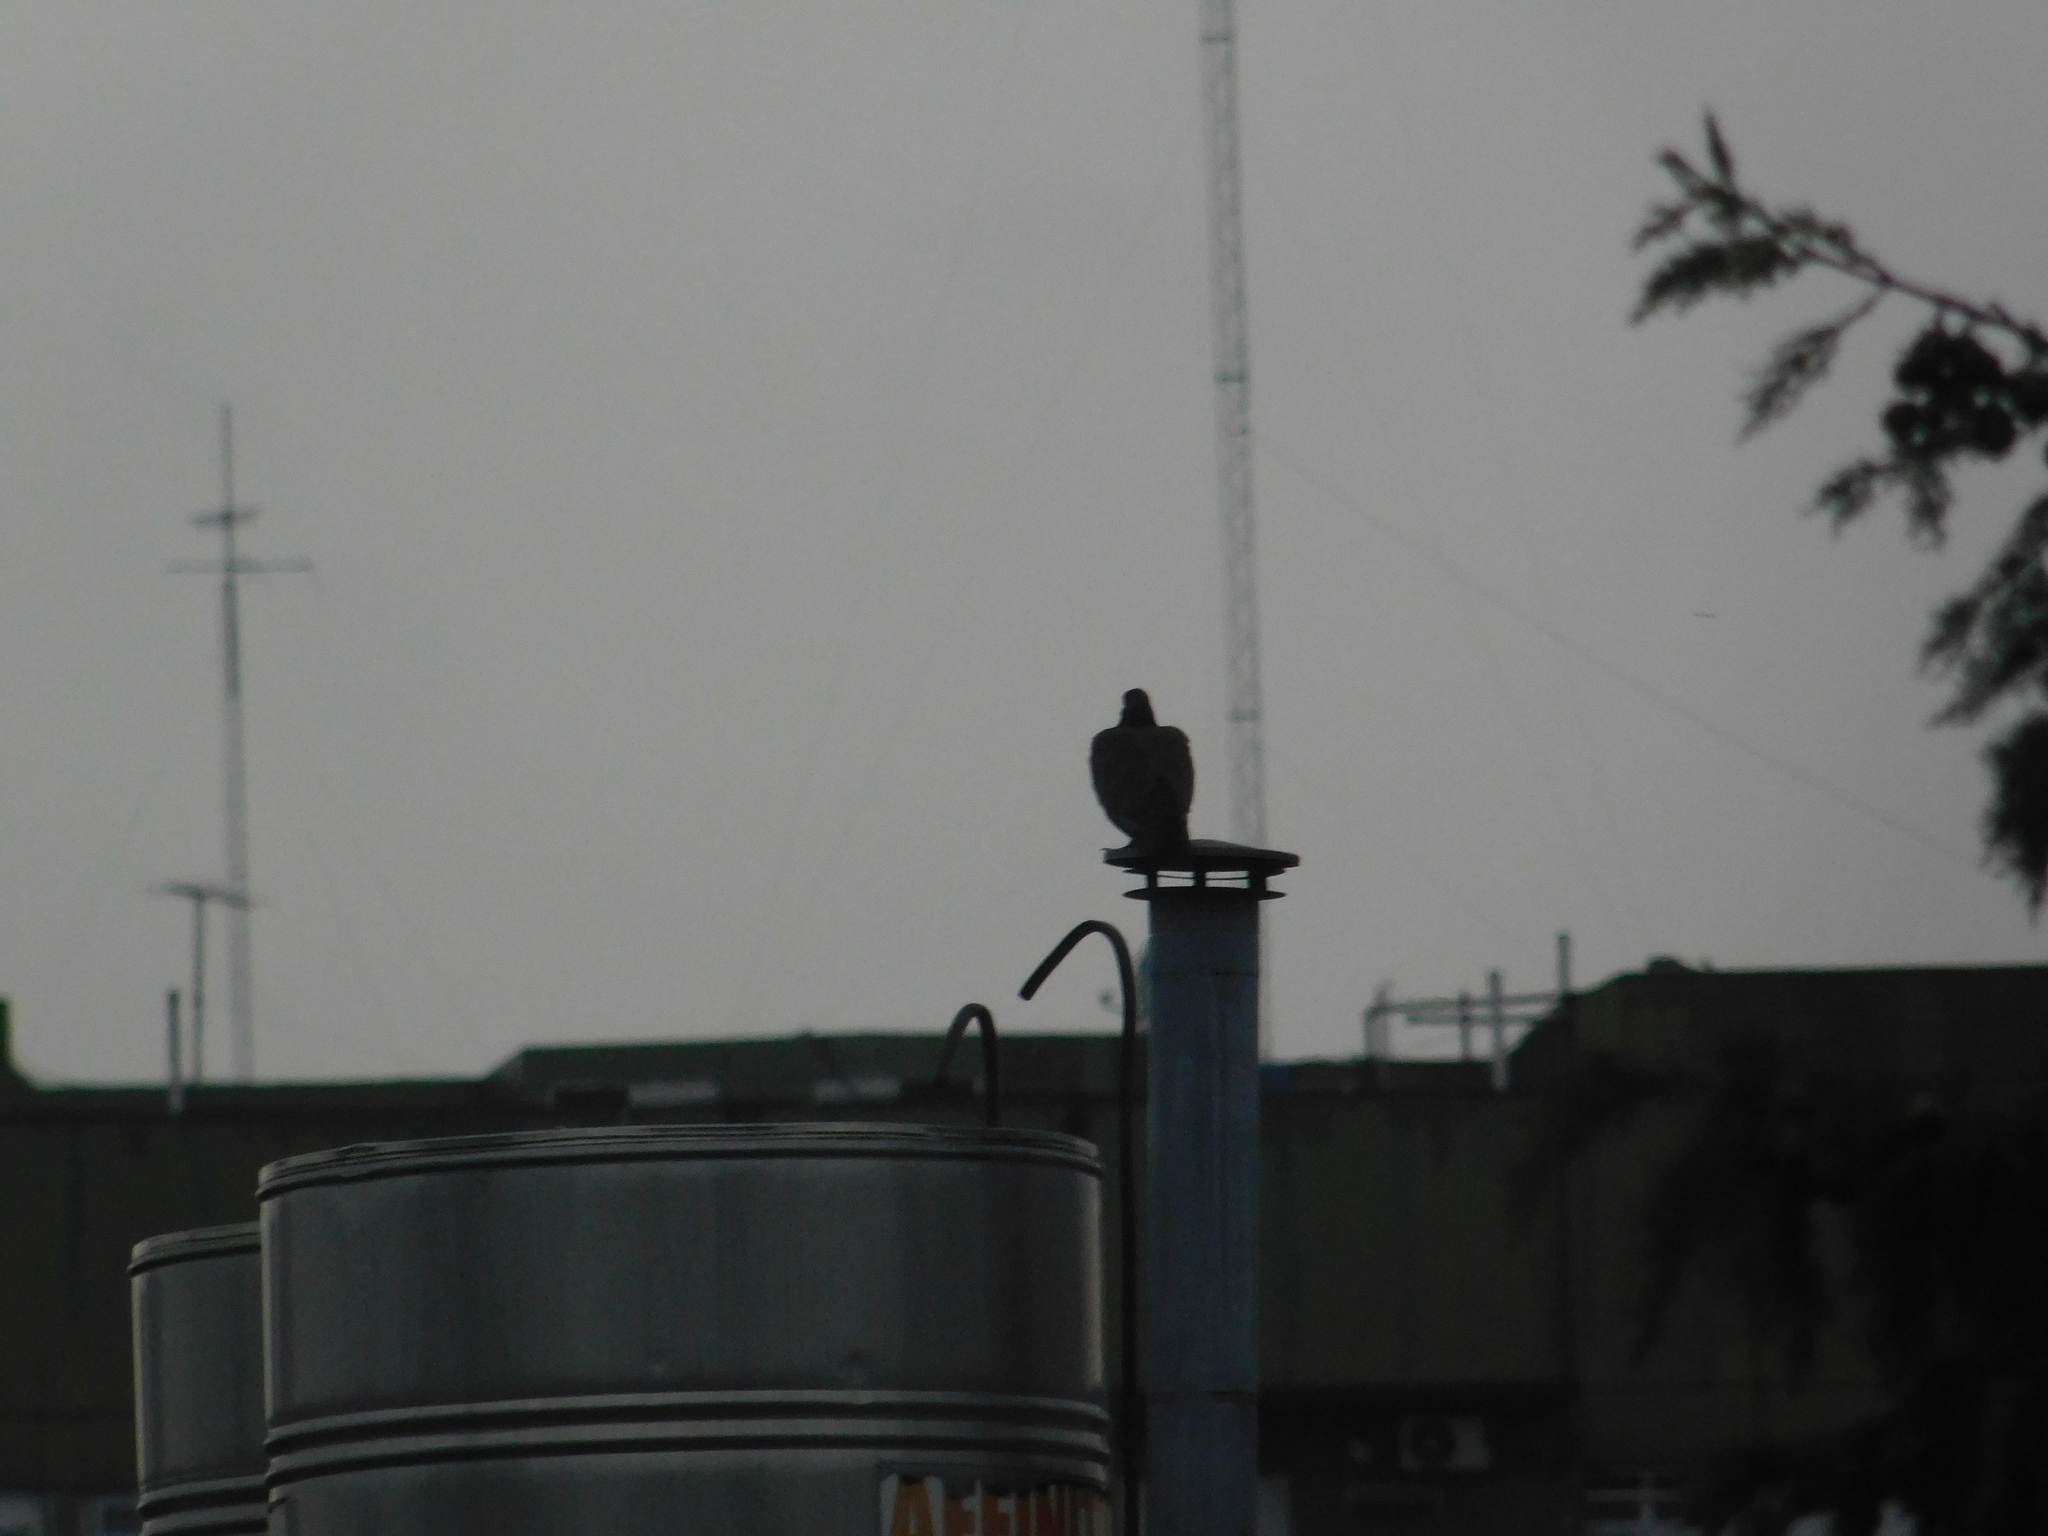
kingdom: Animalia
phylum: Chordata
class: Aves
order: Columbiformes
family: Columbidae
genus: Patagioenas
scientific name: Patagioenas picazuro
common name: Picazuro pigeon
